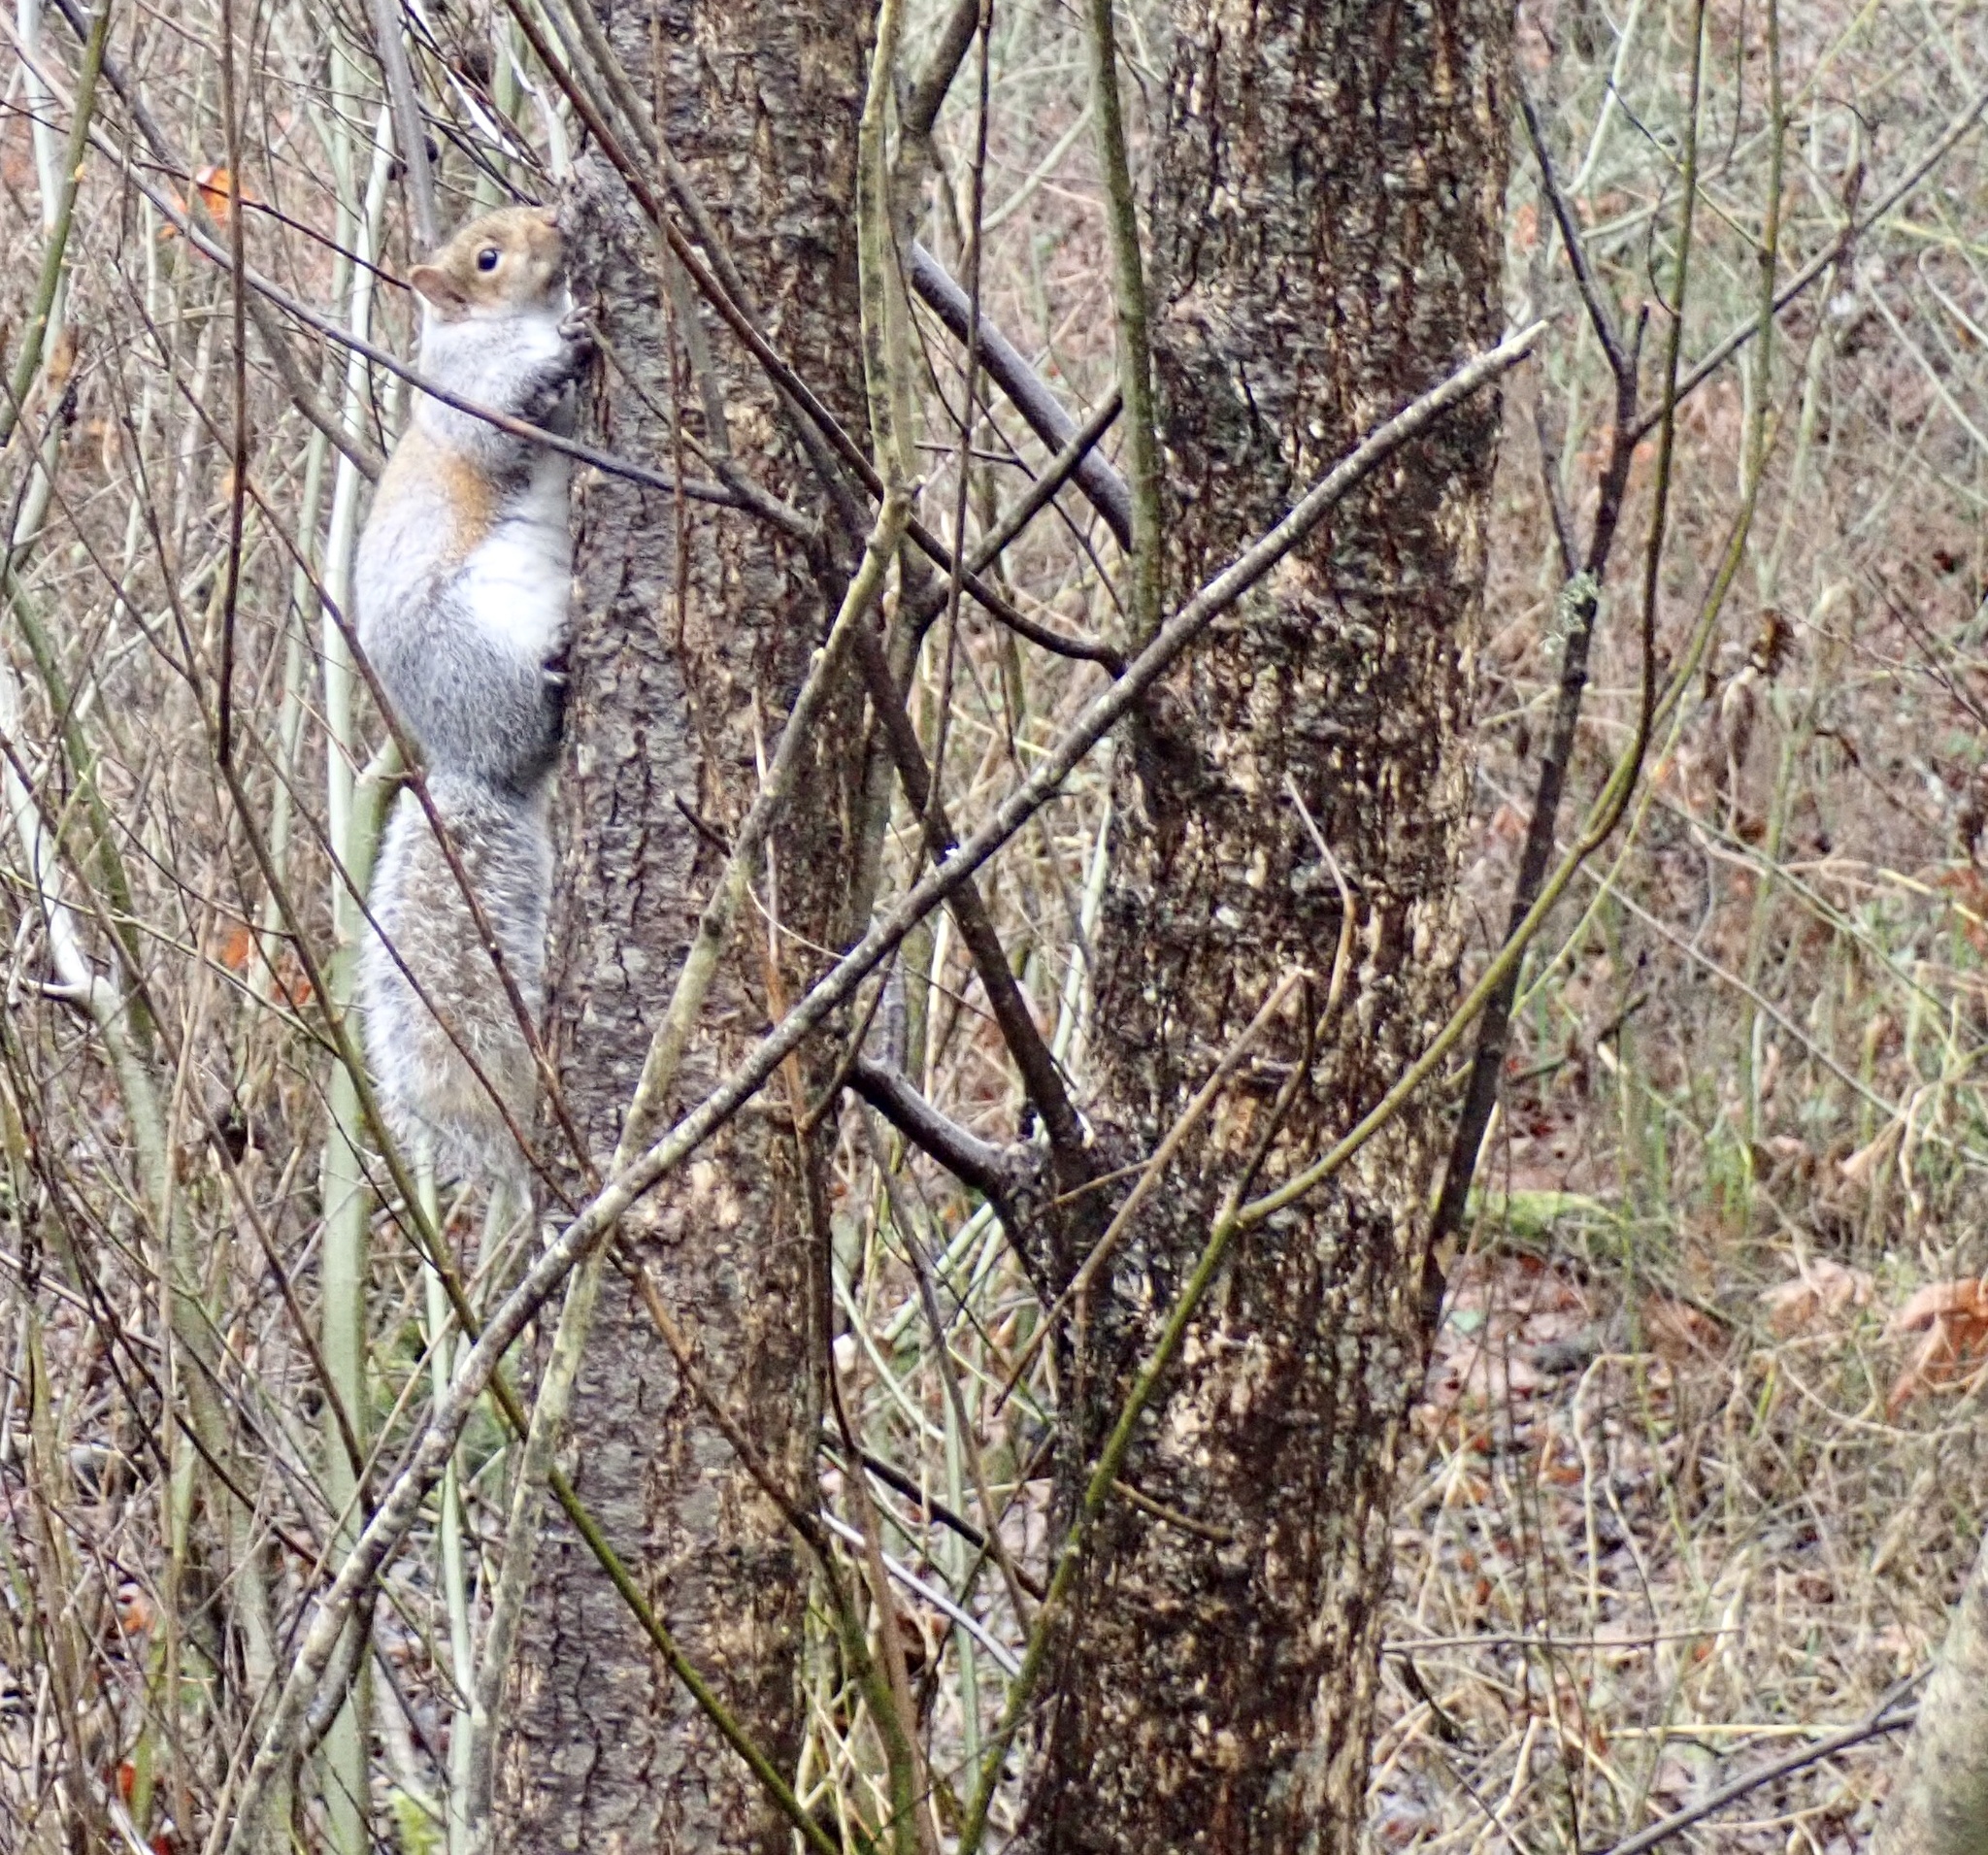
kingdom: Animalia
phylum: Chordata
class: Mammalia
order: Rodentia
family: Sciuridae
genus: Sciurus
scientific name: Sciurus carolinensis
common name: Eastern gray squirrel
